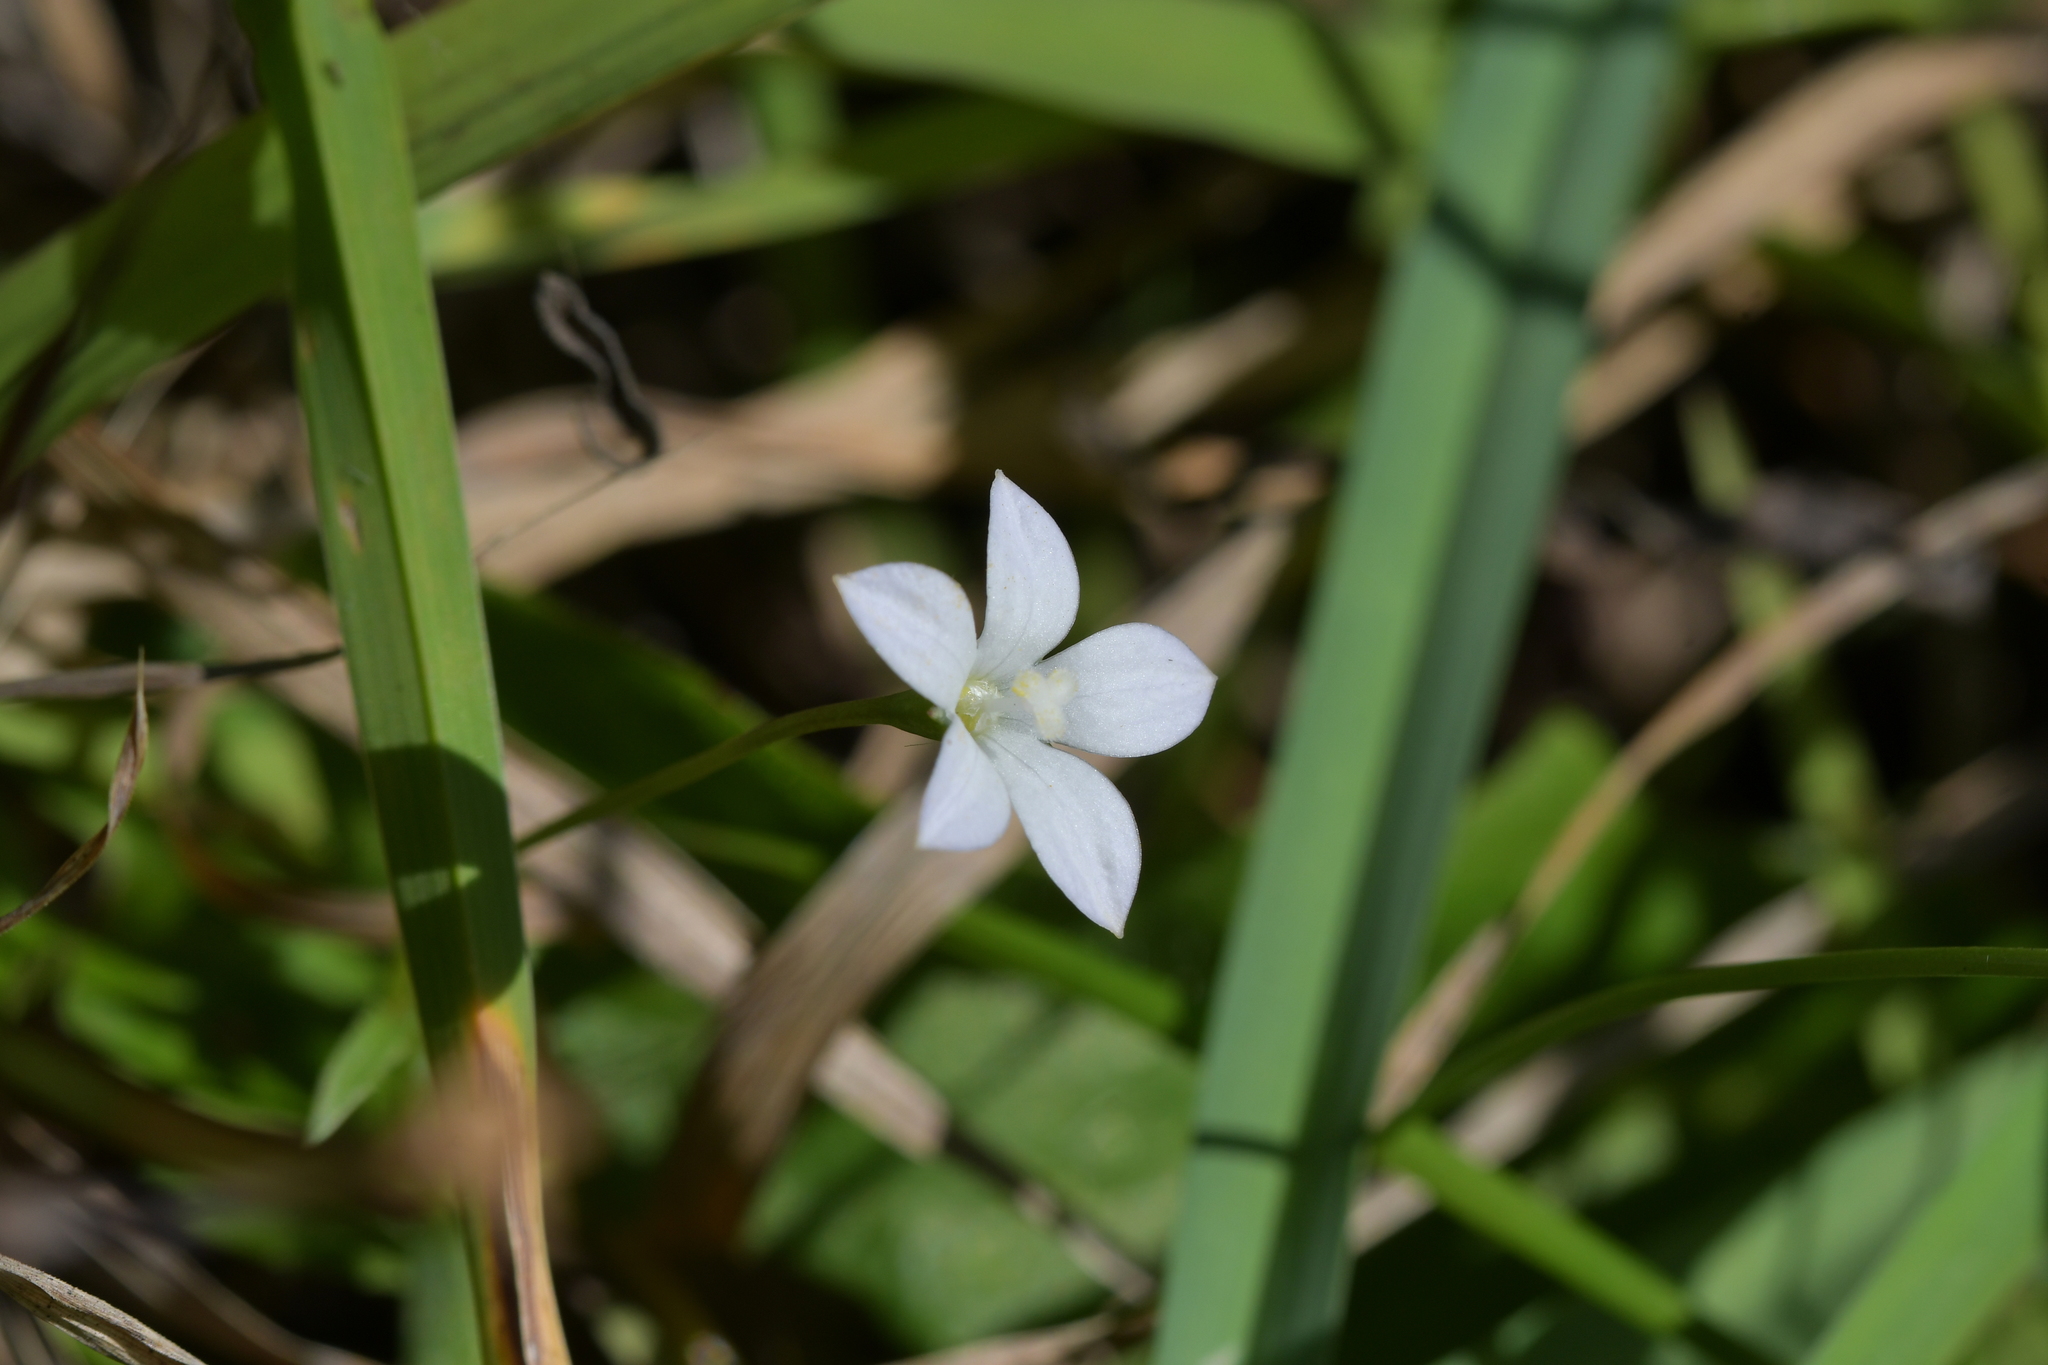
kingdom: Plantae
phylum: Tracheophyta
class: Magnoliopsida
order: Asterales
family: Campanulaceae
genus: Wahlenbergia
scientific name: Wahlenbergia rupestris
